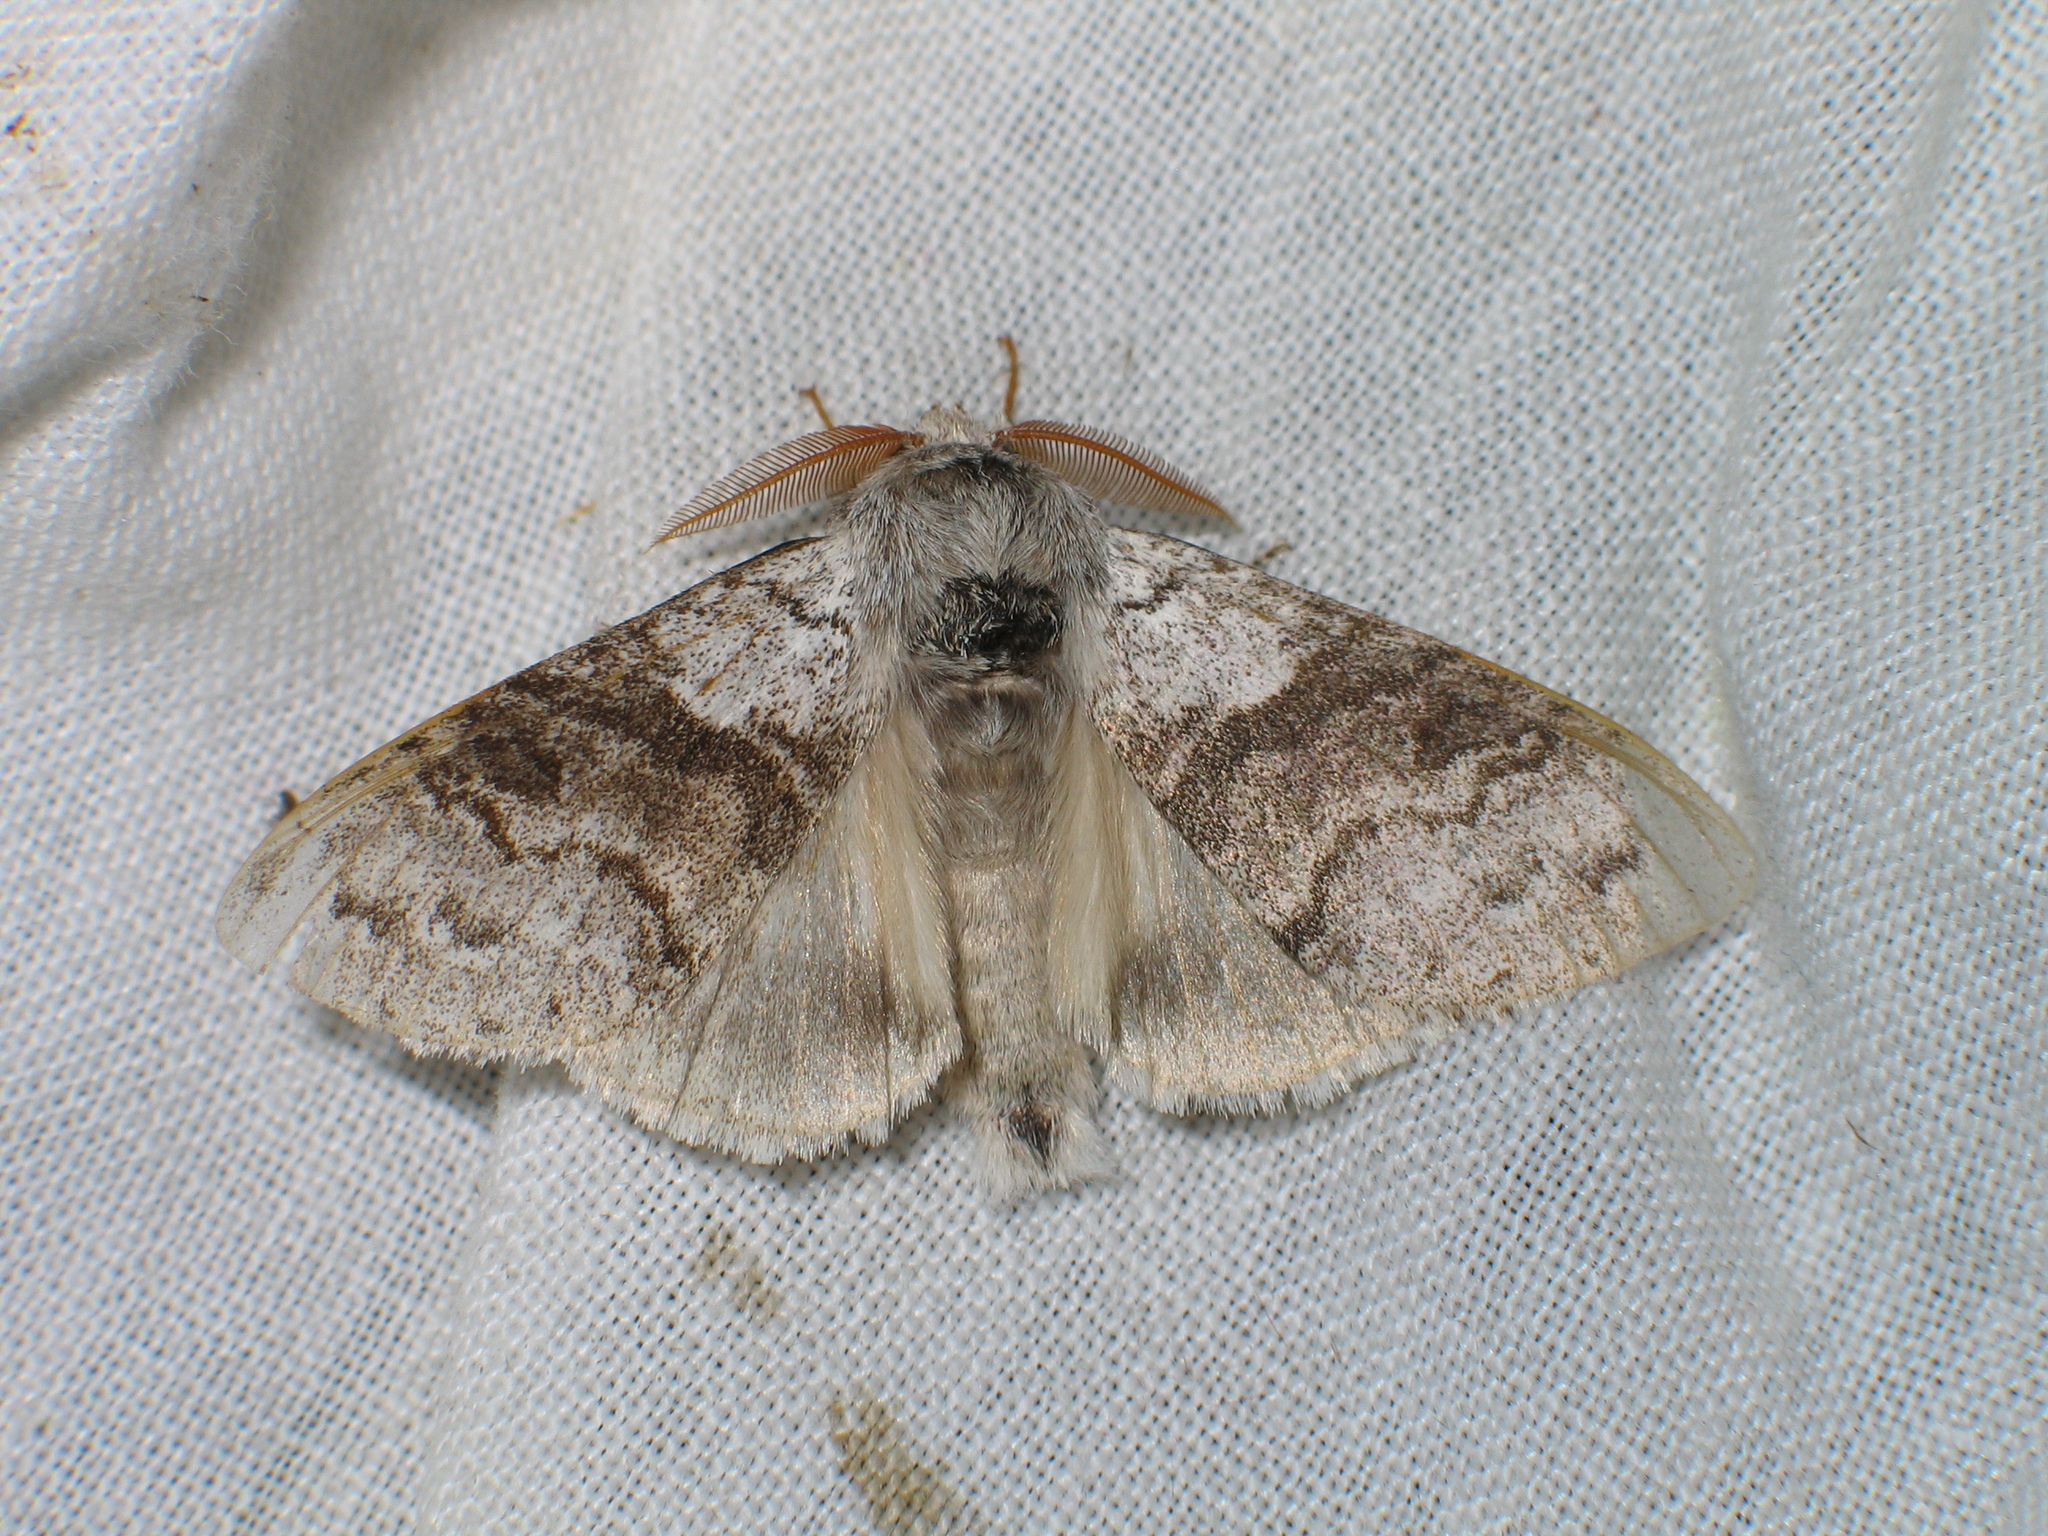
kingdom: Animalia
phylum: Arthropoda
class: Insecta
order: Lepidoptera
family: Erebidae
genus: Calliteara
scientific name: Calliteara pudibunda
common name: Pale tussock
